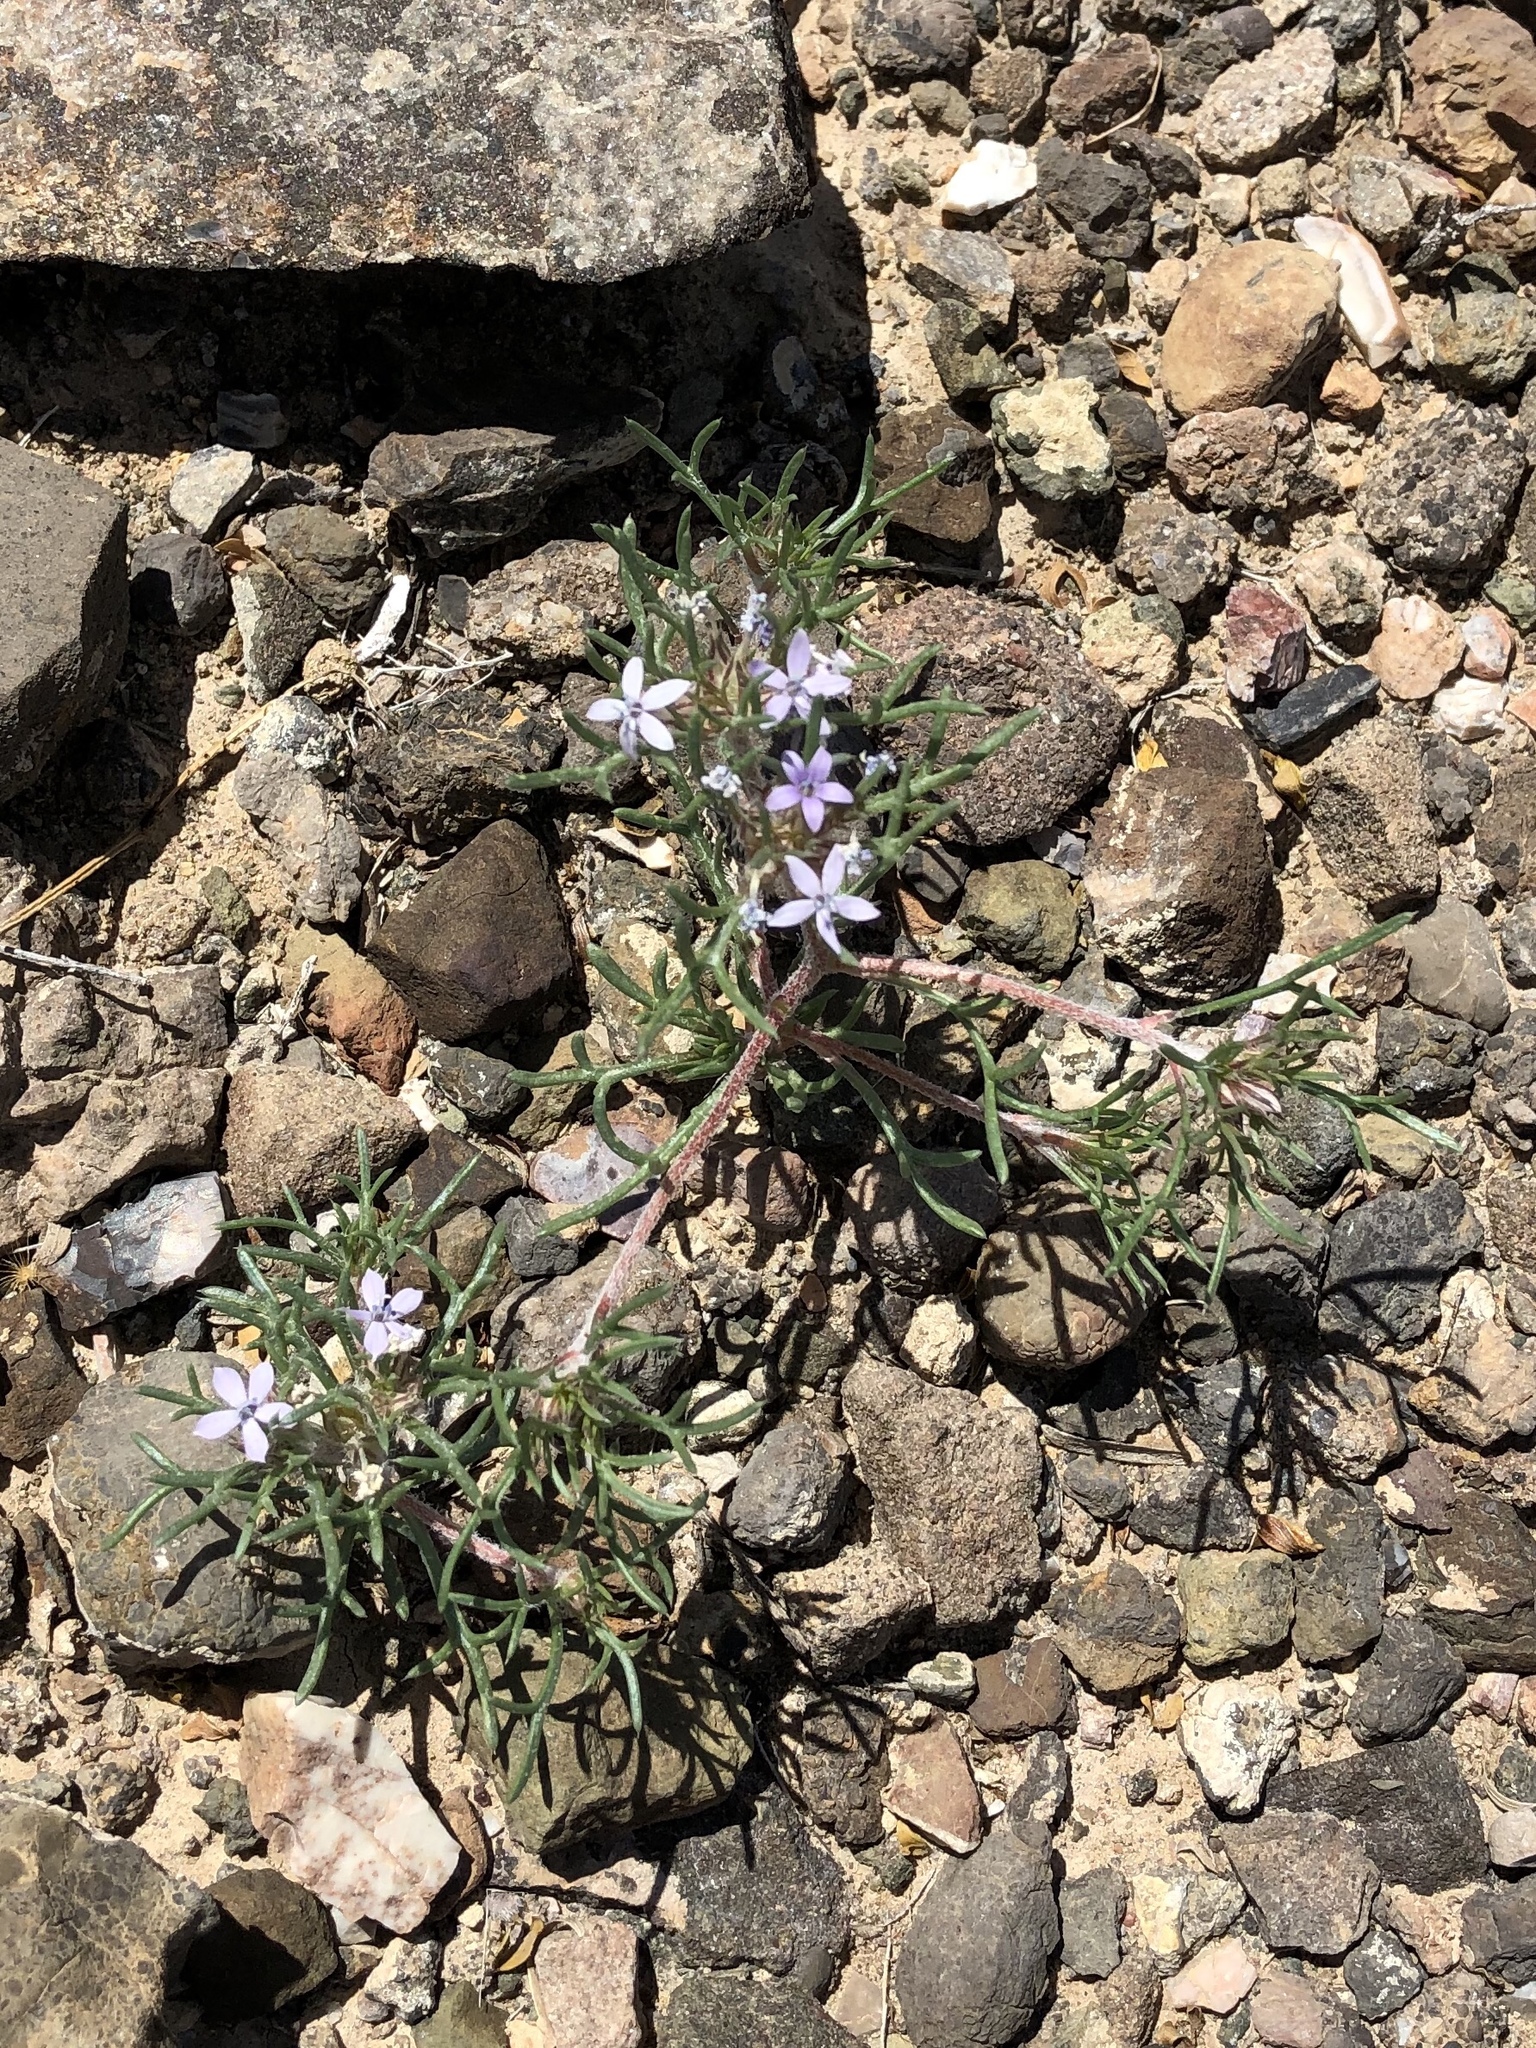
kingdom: Plantae
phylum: Tracheophyta
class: Magnoliopsida
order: Ericales
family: Polemoniaceae
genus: Ipomopsis
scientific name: Ipomopsis pumila
